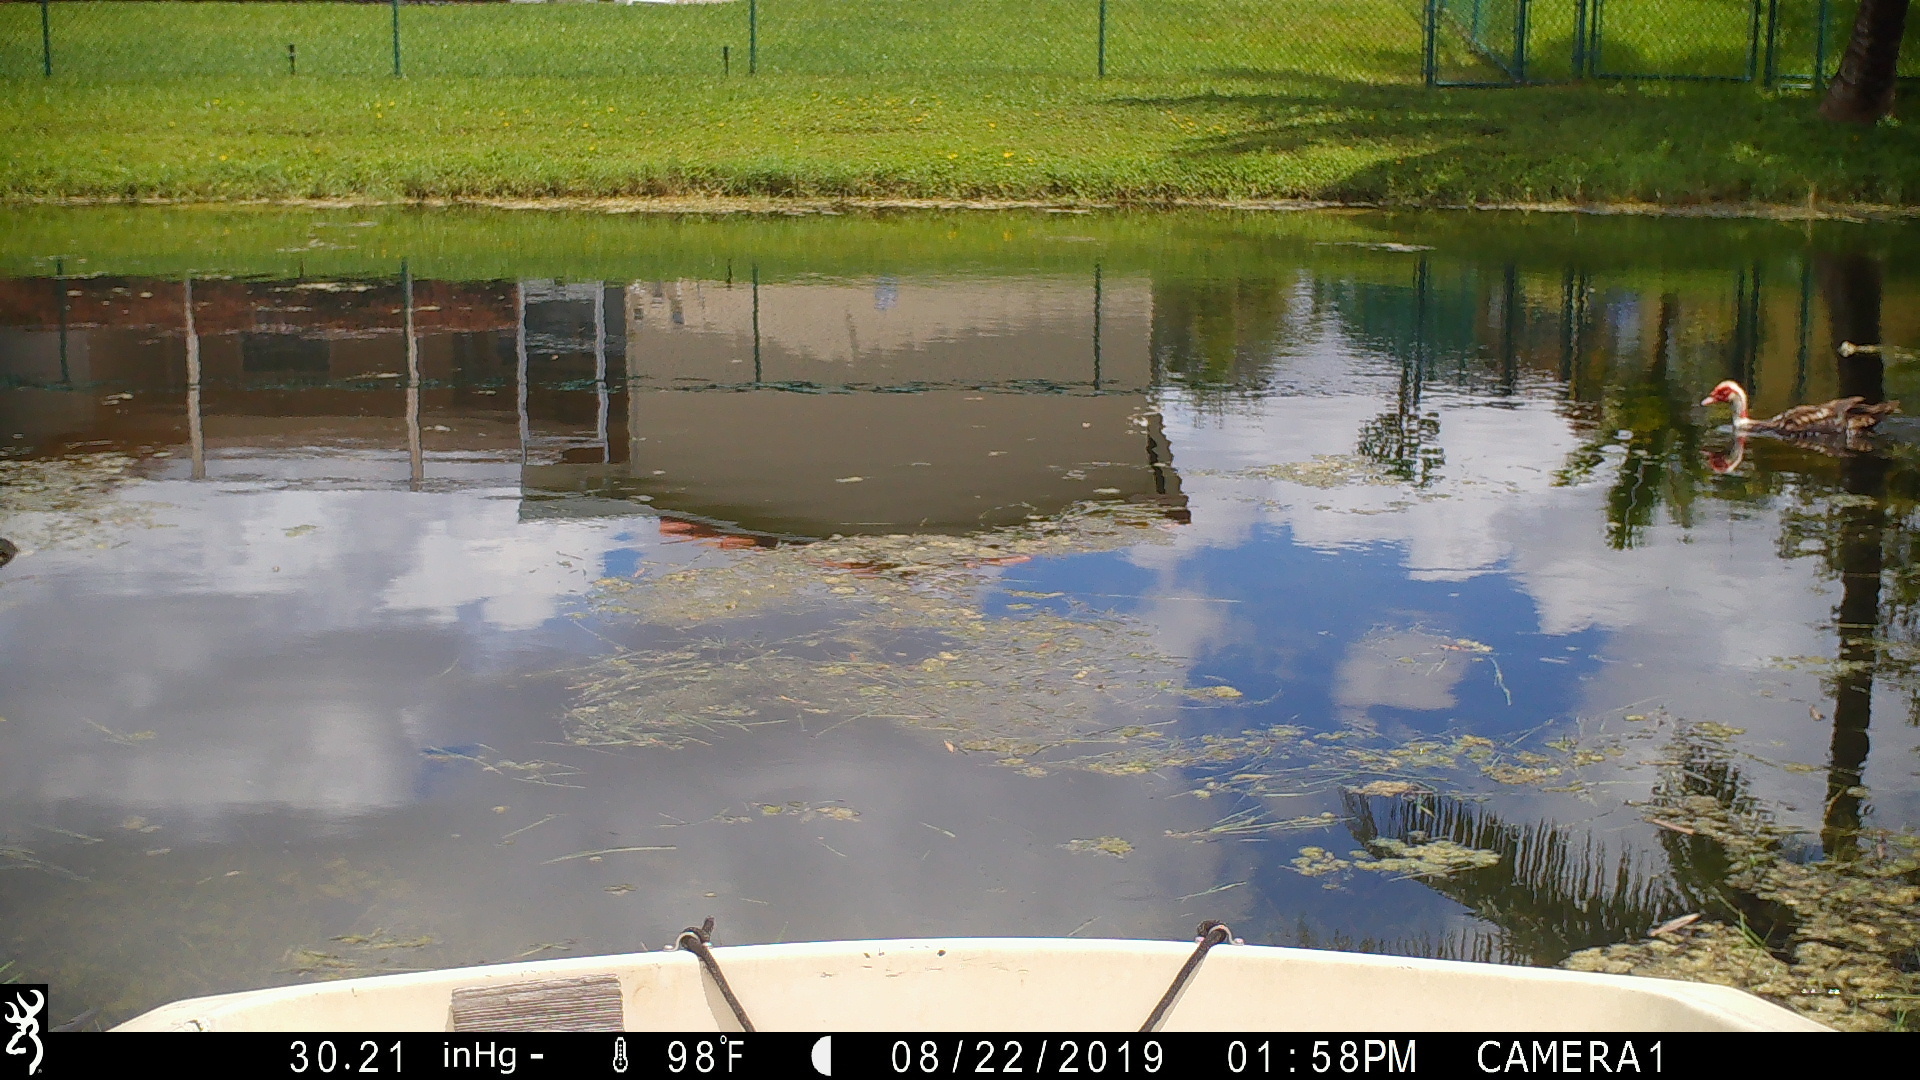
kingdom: Animalia
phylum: Chordata
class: Aves
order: Anseriformes
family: Anatidae
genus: Cairina
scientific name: Cairina moschata
